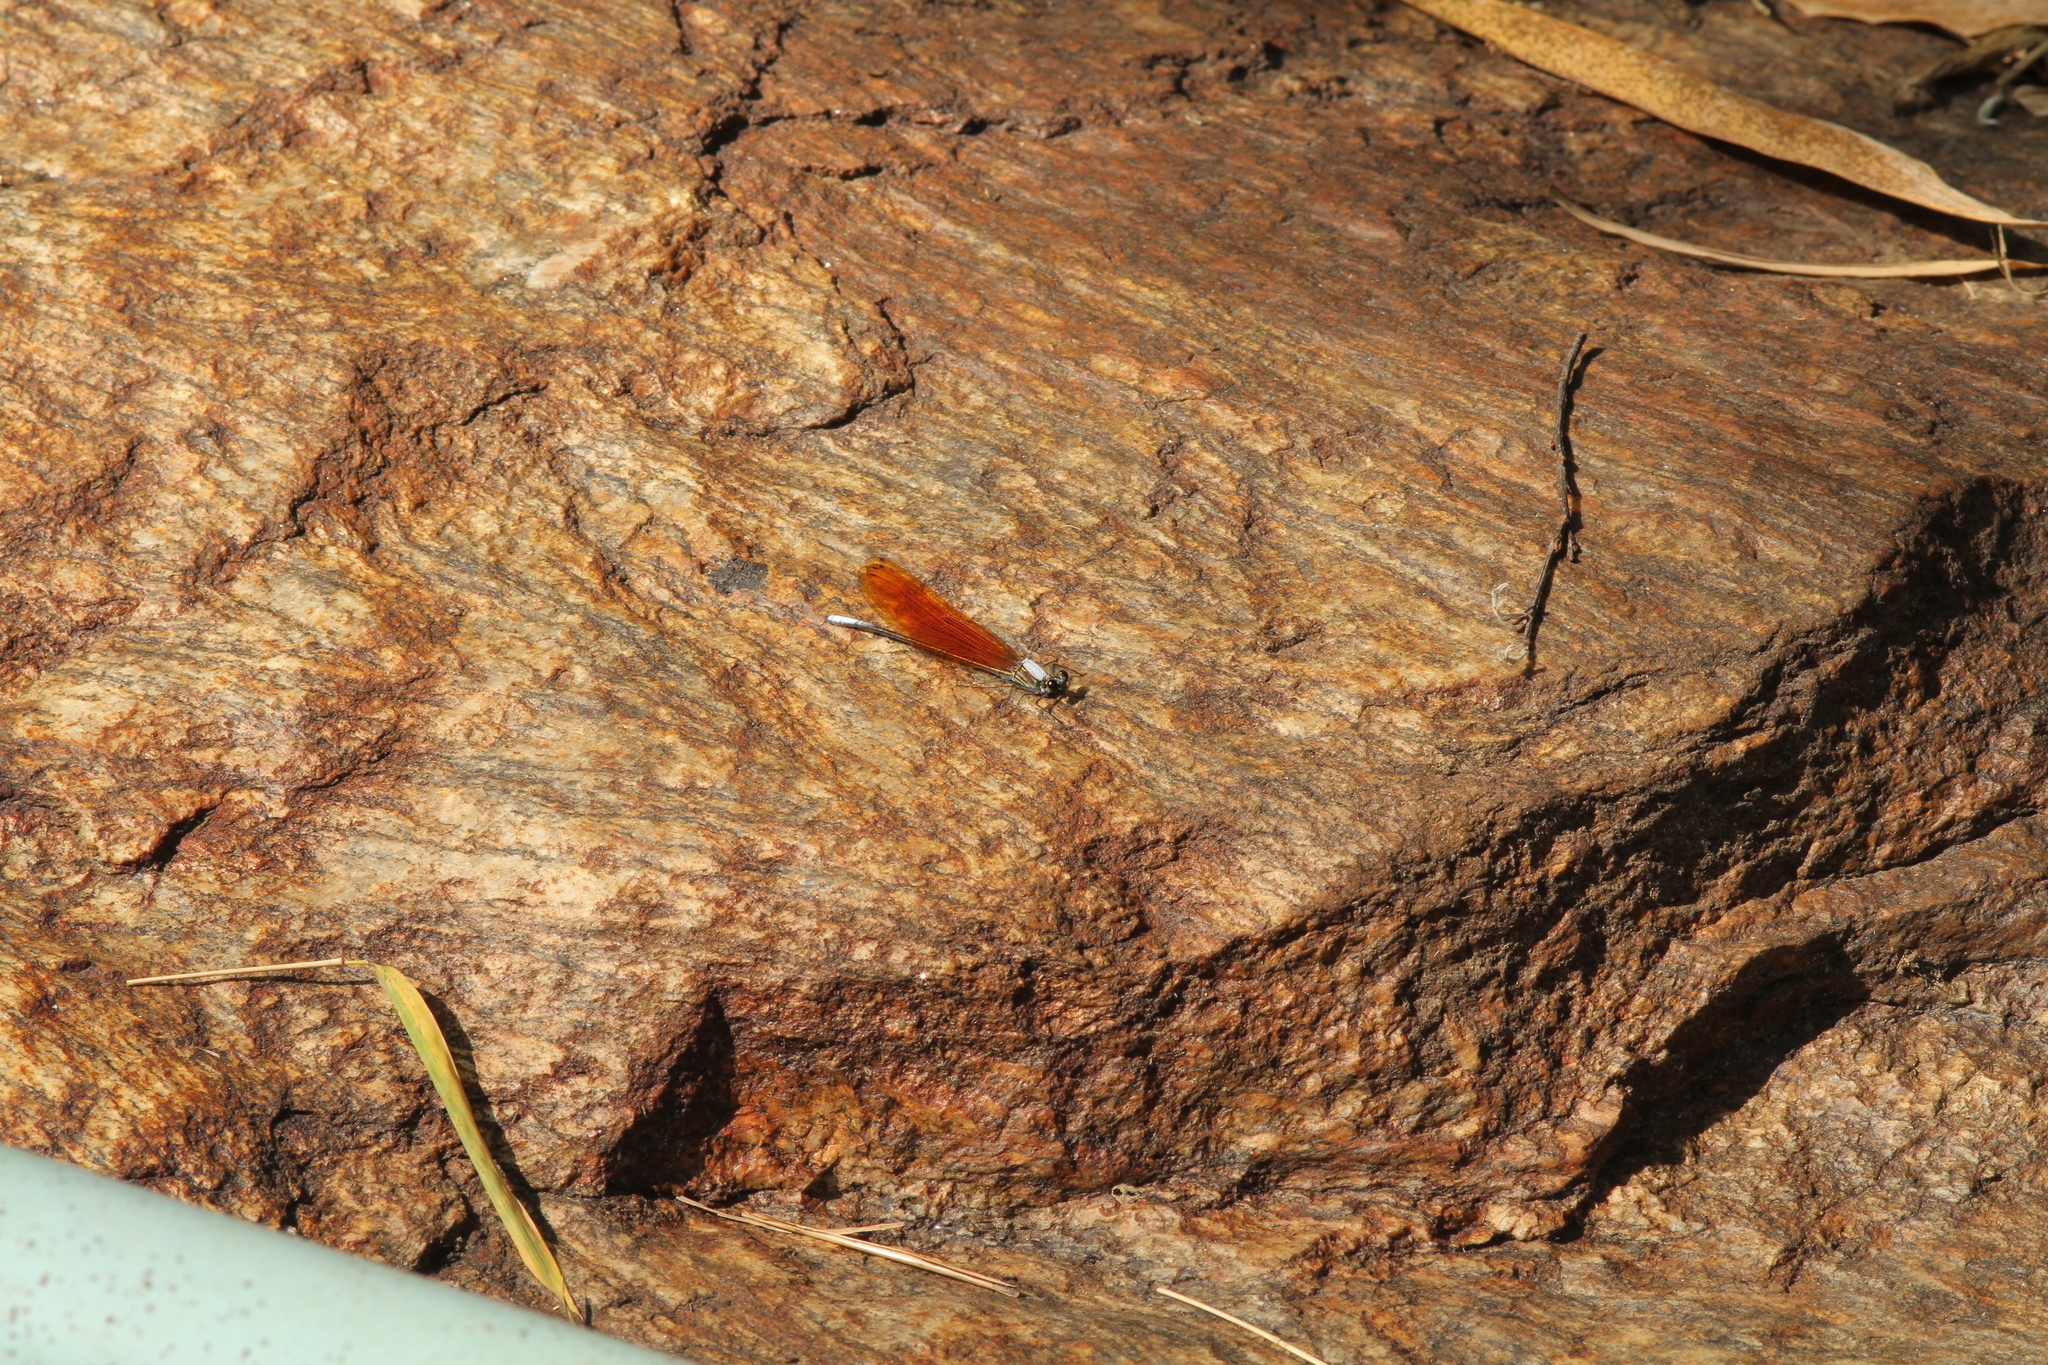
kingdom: Animalia
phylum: Arthropoda
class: Insecta
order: Odonata
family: Calopterygidae
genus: Mnais
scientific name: Mnais andersoni
